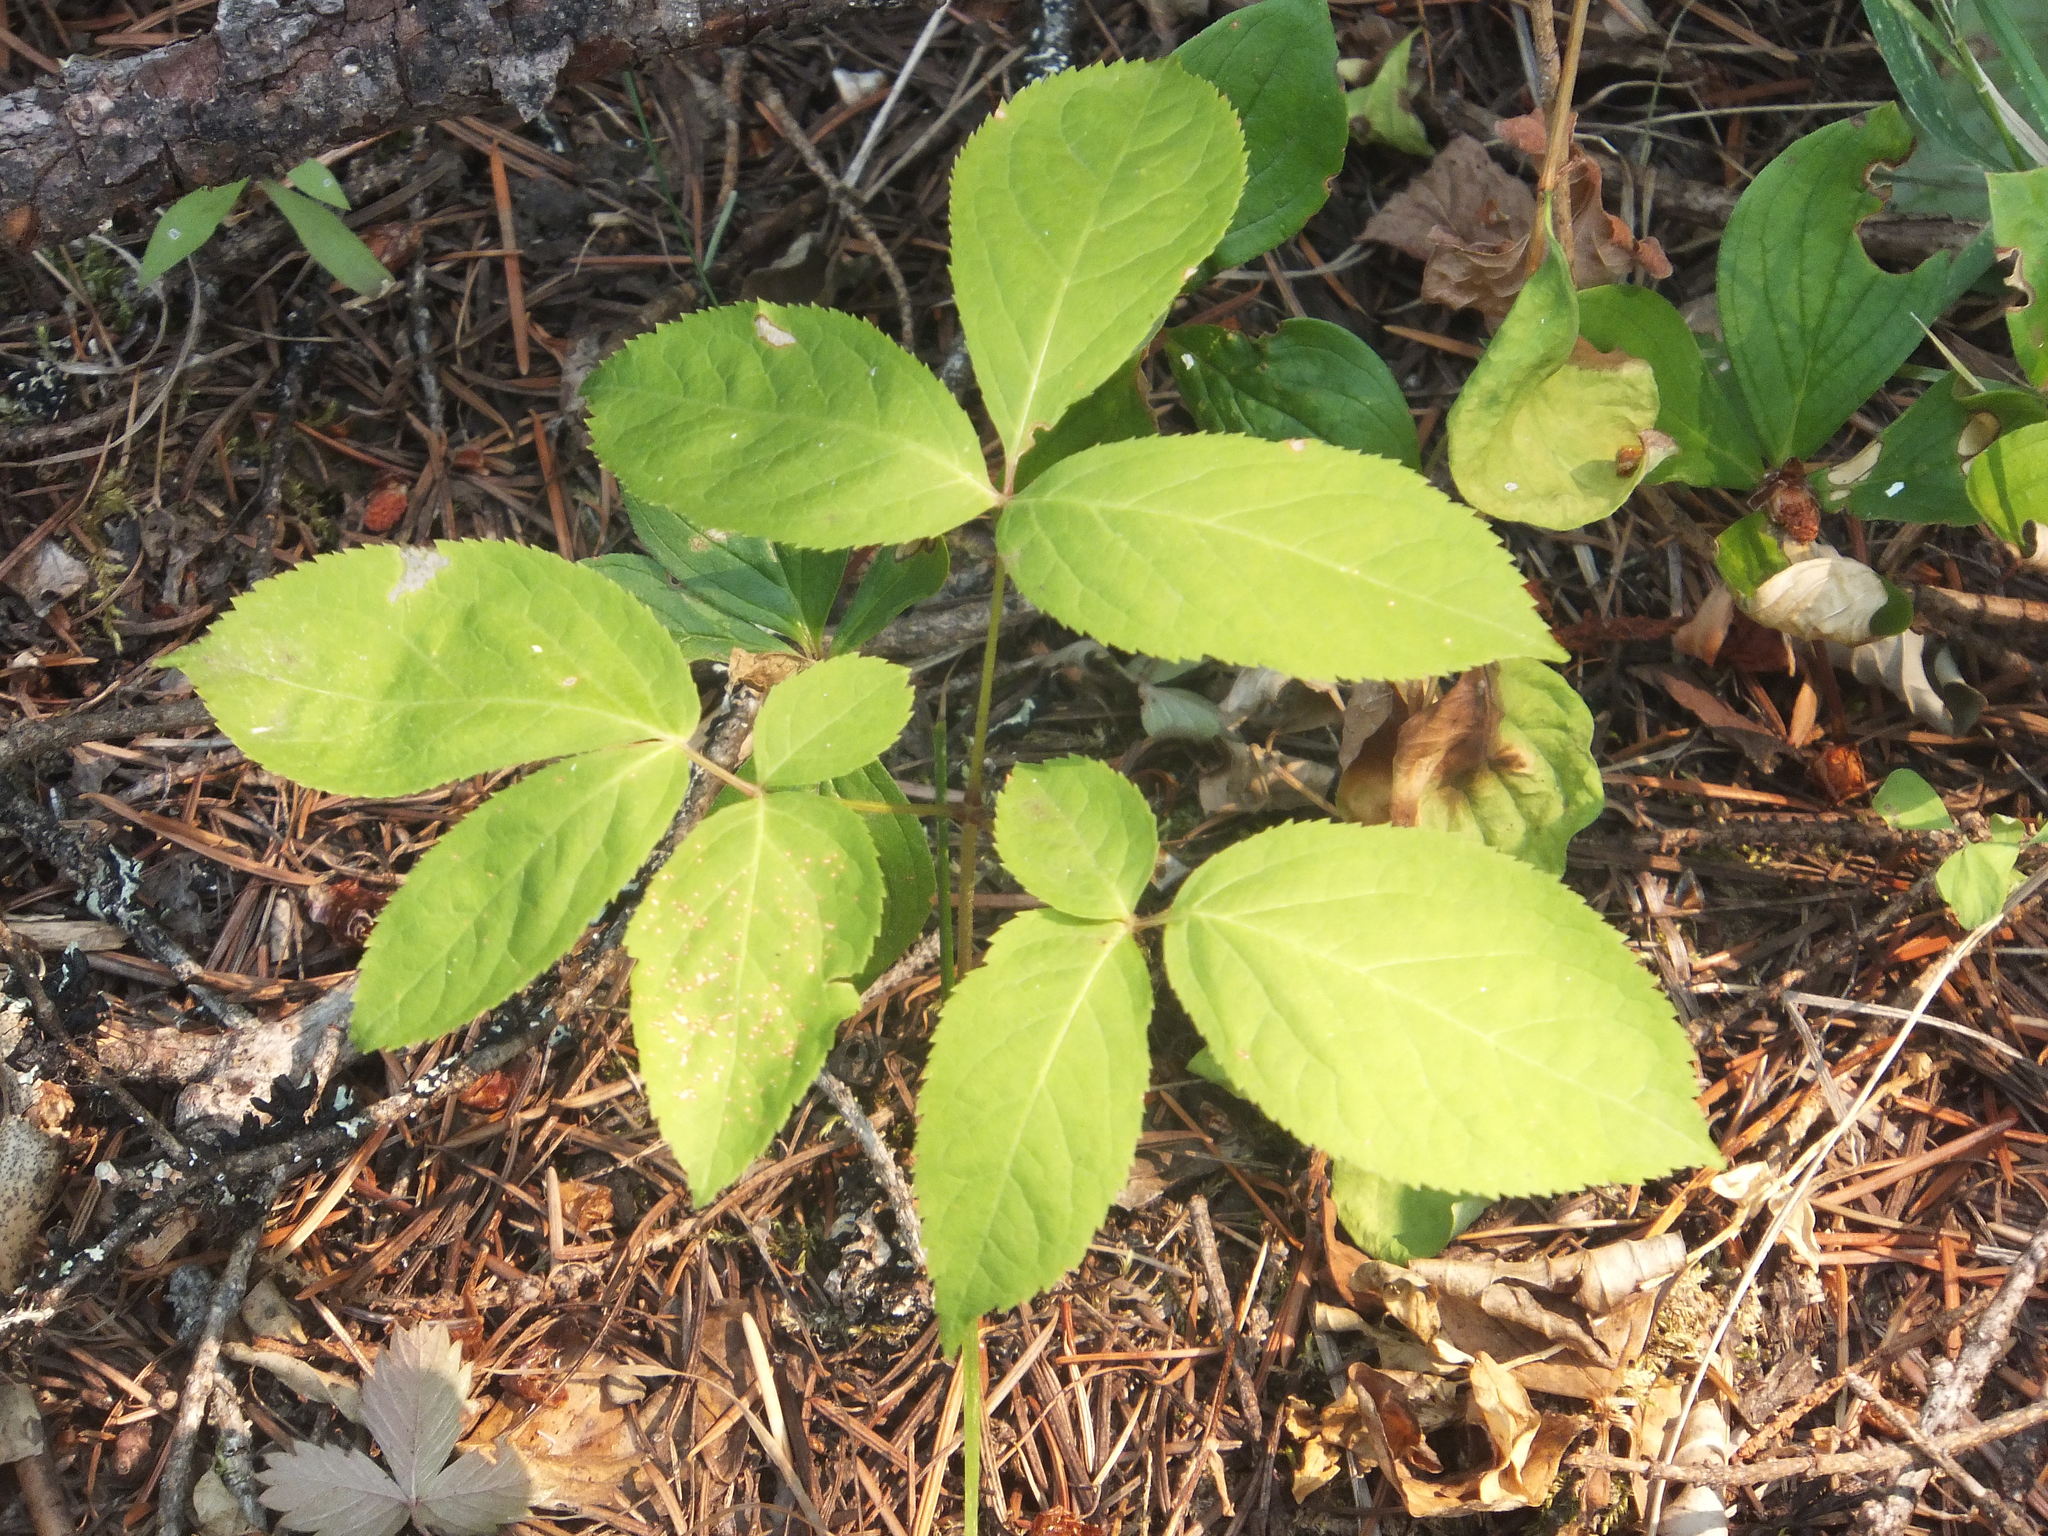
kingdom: Plantae
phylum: Tracheophyta
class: Magnoliopsida
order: Apiales
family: Araliaceae
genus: Aralia
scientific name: Aralia nudicaulis
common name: Wild sarsaparilla
